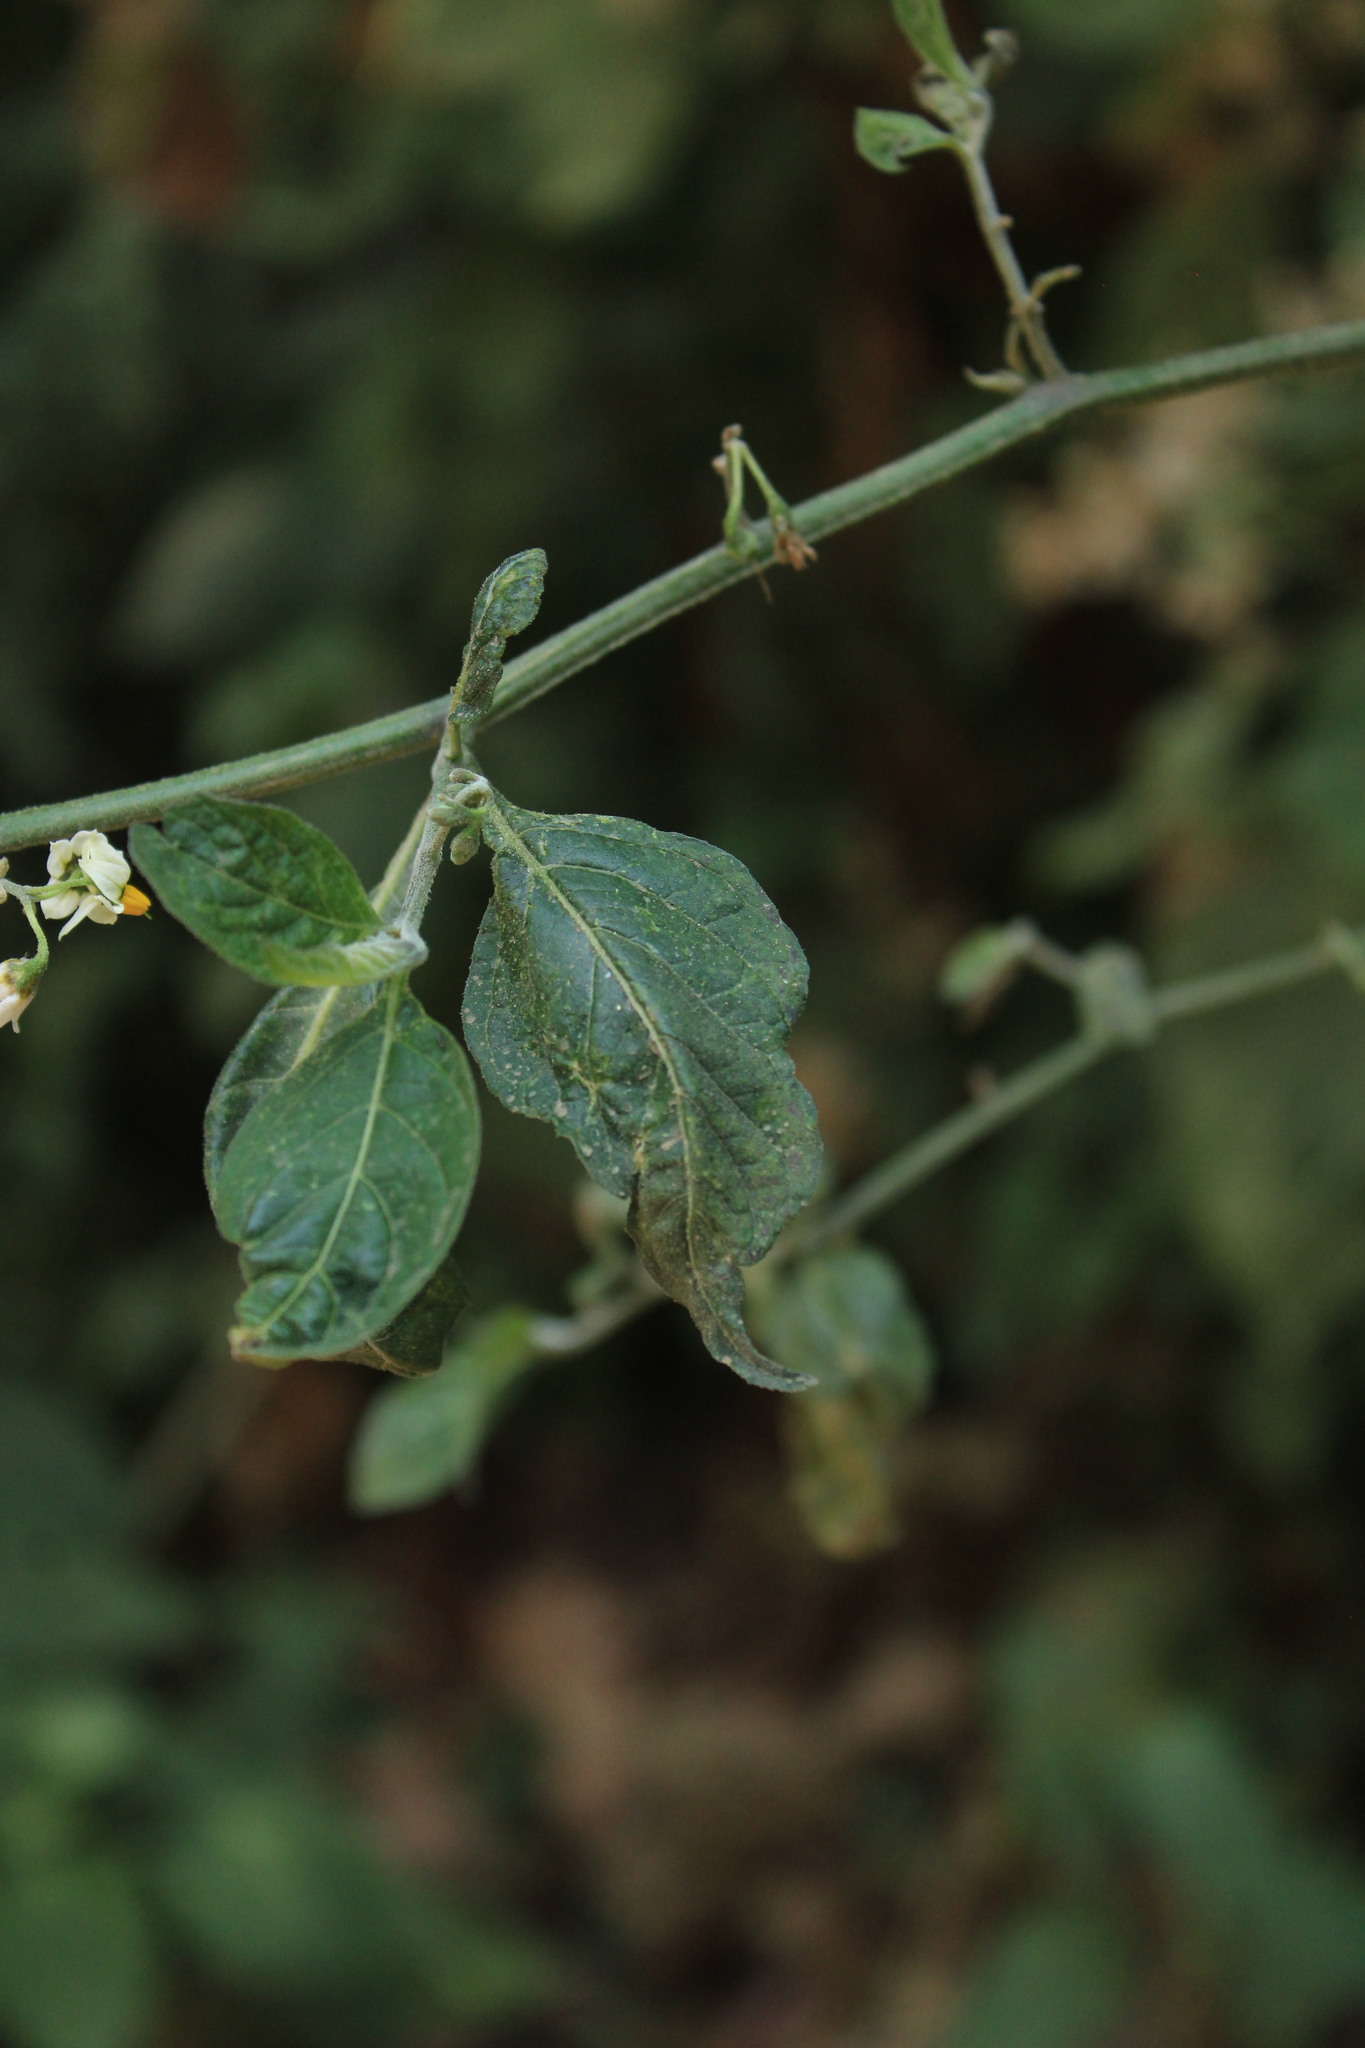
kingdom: Plantae
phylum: Tracheophyta
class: Magnoliopsida
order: Solanales
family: Solanaceae
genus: Solanum
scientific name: Solanum douglasii
